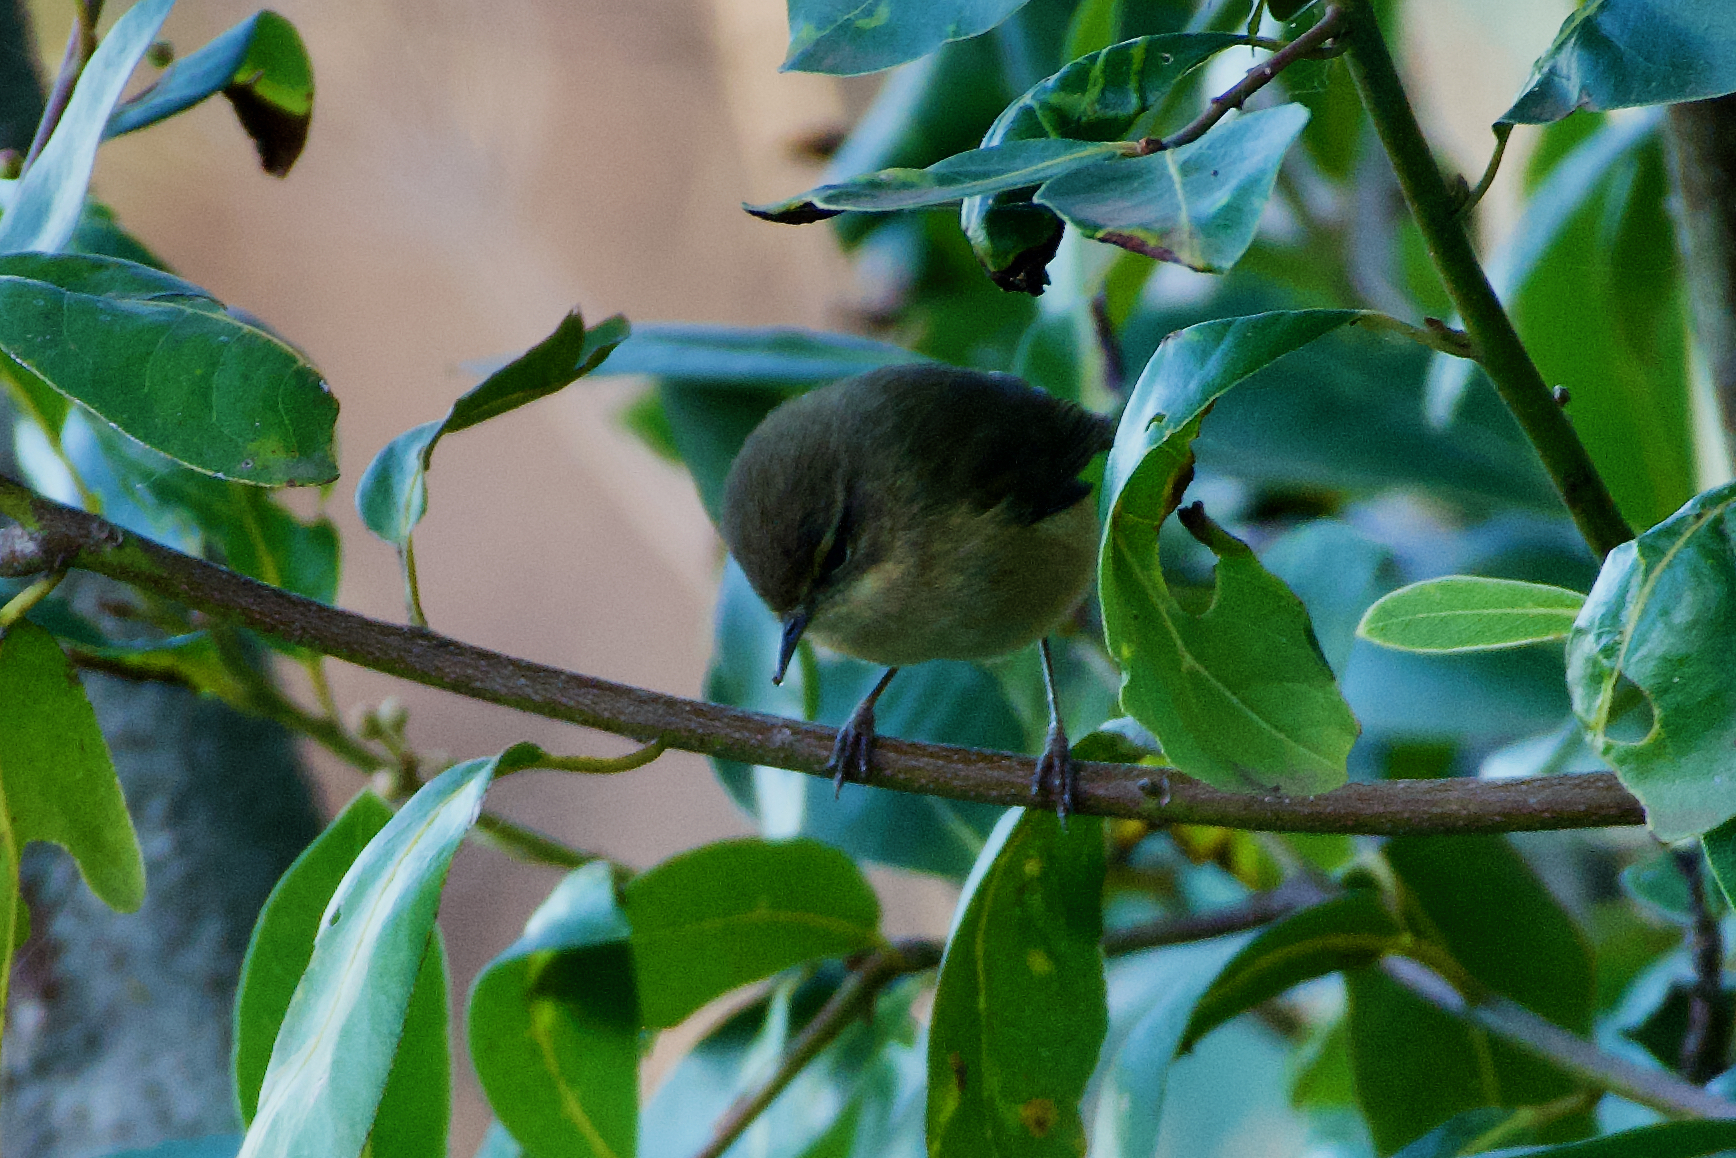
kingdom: Animalia
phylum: Chordata
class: Aves
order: Passeriformes
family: Phylloscopidae
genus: Phylloscopus
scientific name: Phylloscopus canariensis
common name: Canary islands chiffchaff
